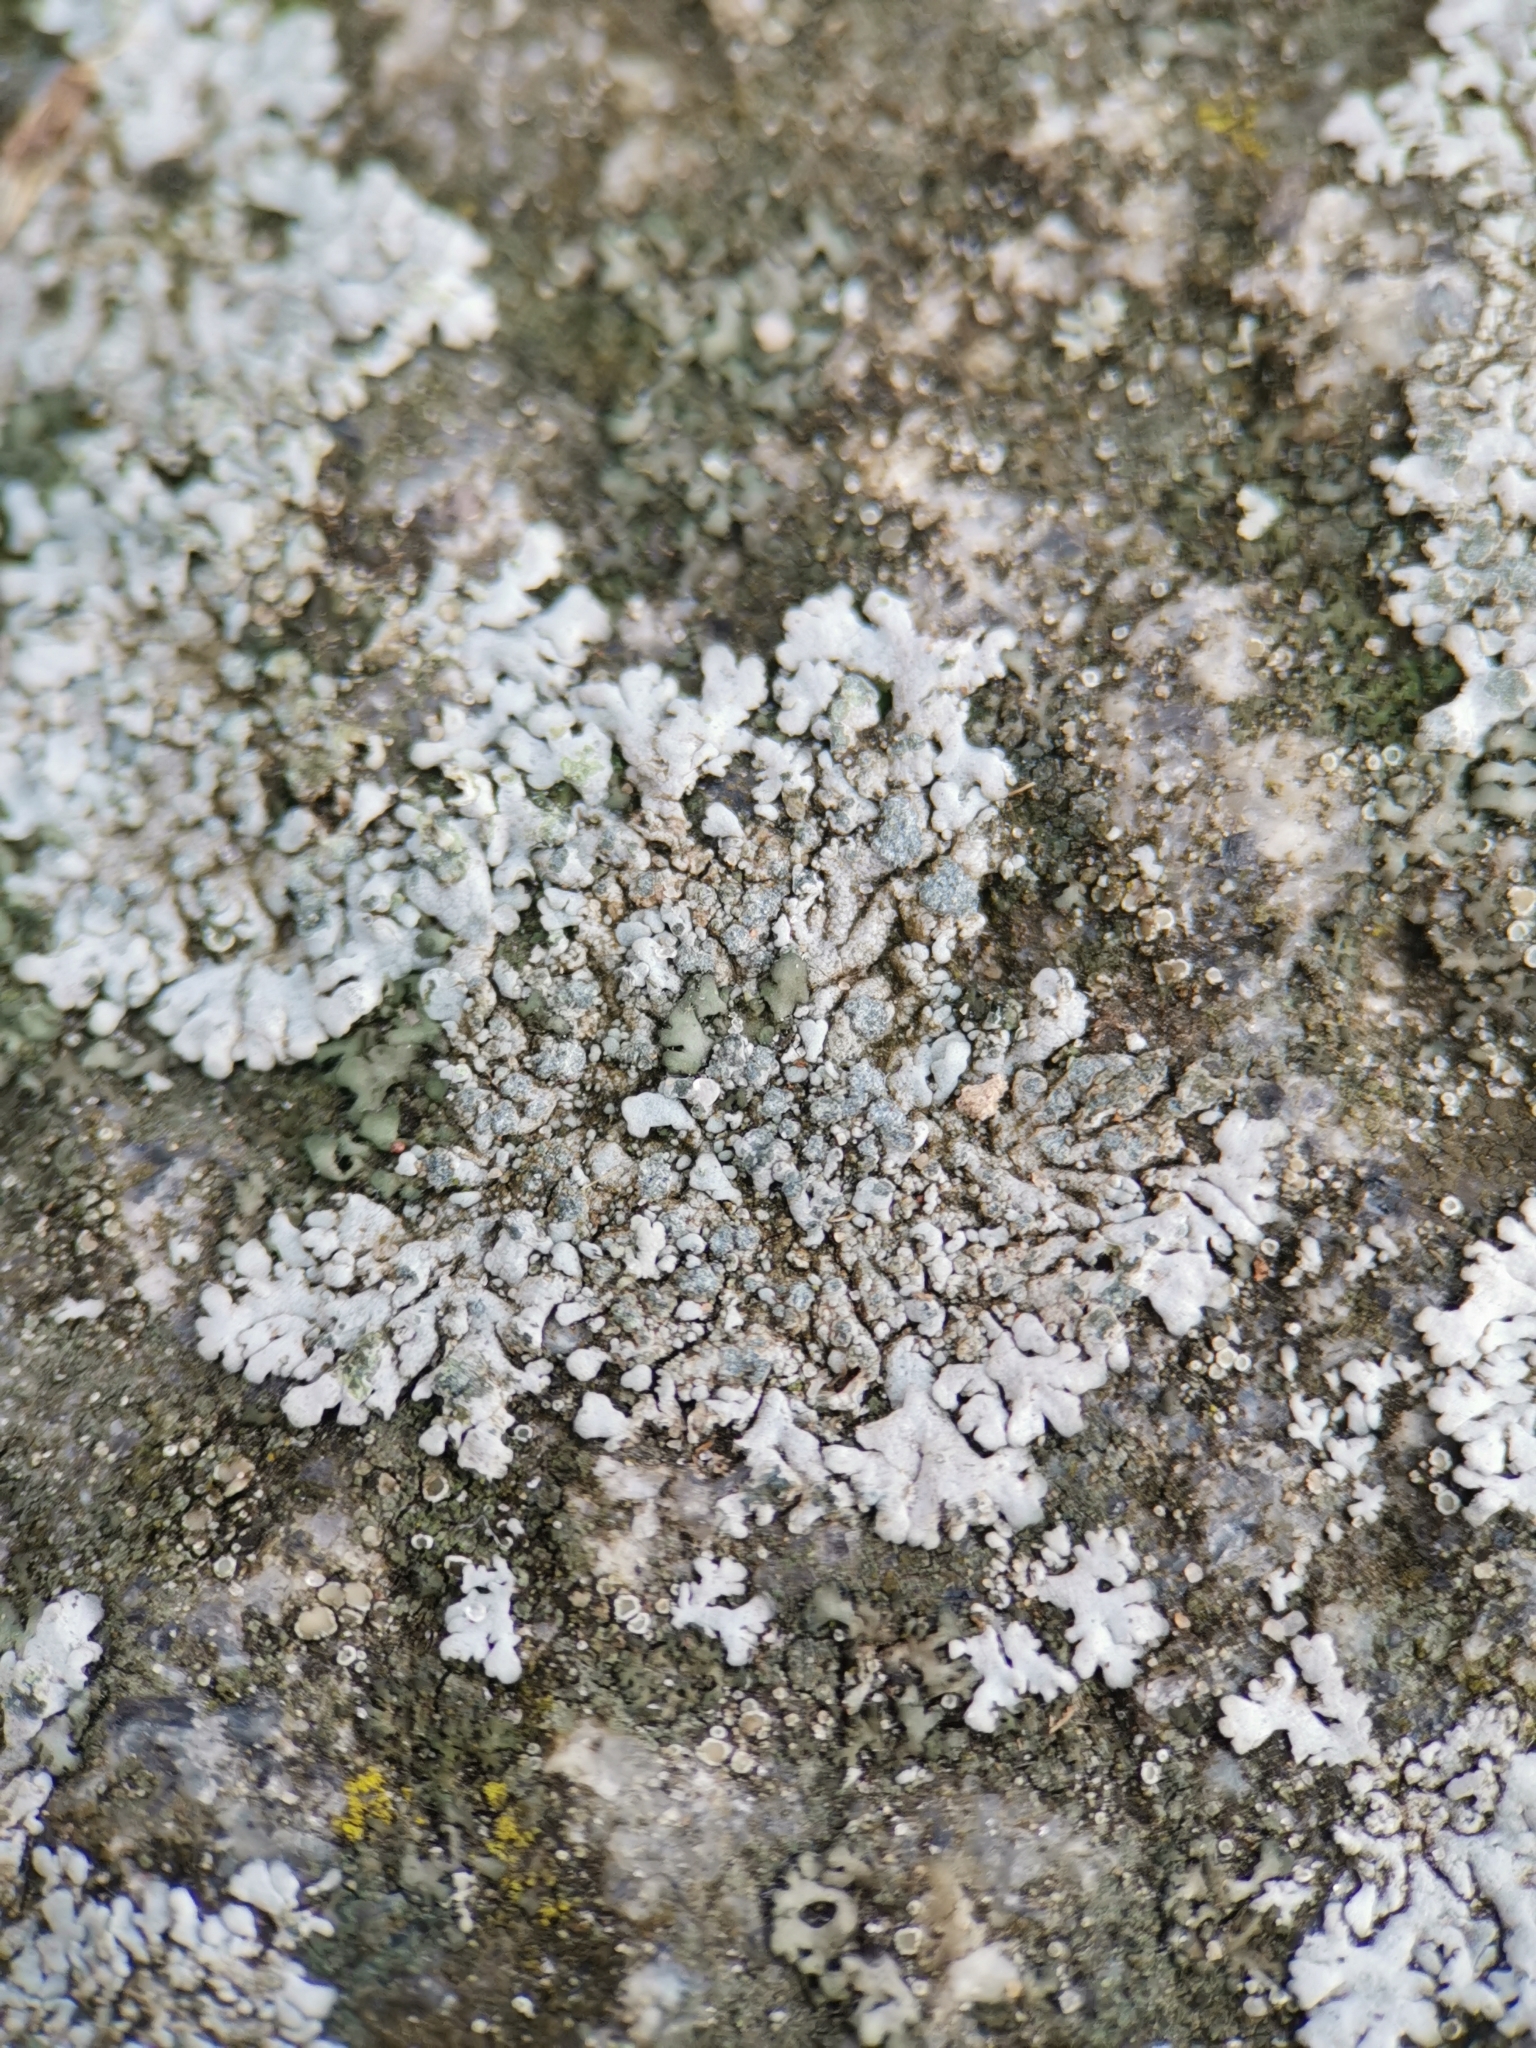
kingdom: Fungi
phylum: Ascomycota
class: Lecanoromycetes
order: Caliciales
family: Physciaceae
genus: Physcia
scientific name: Physcia caesia
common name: Blue-gray rosette lichen
